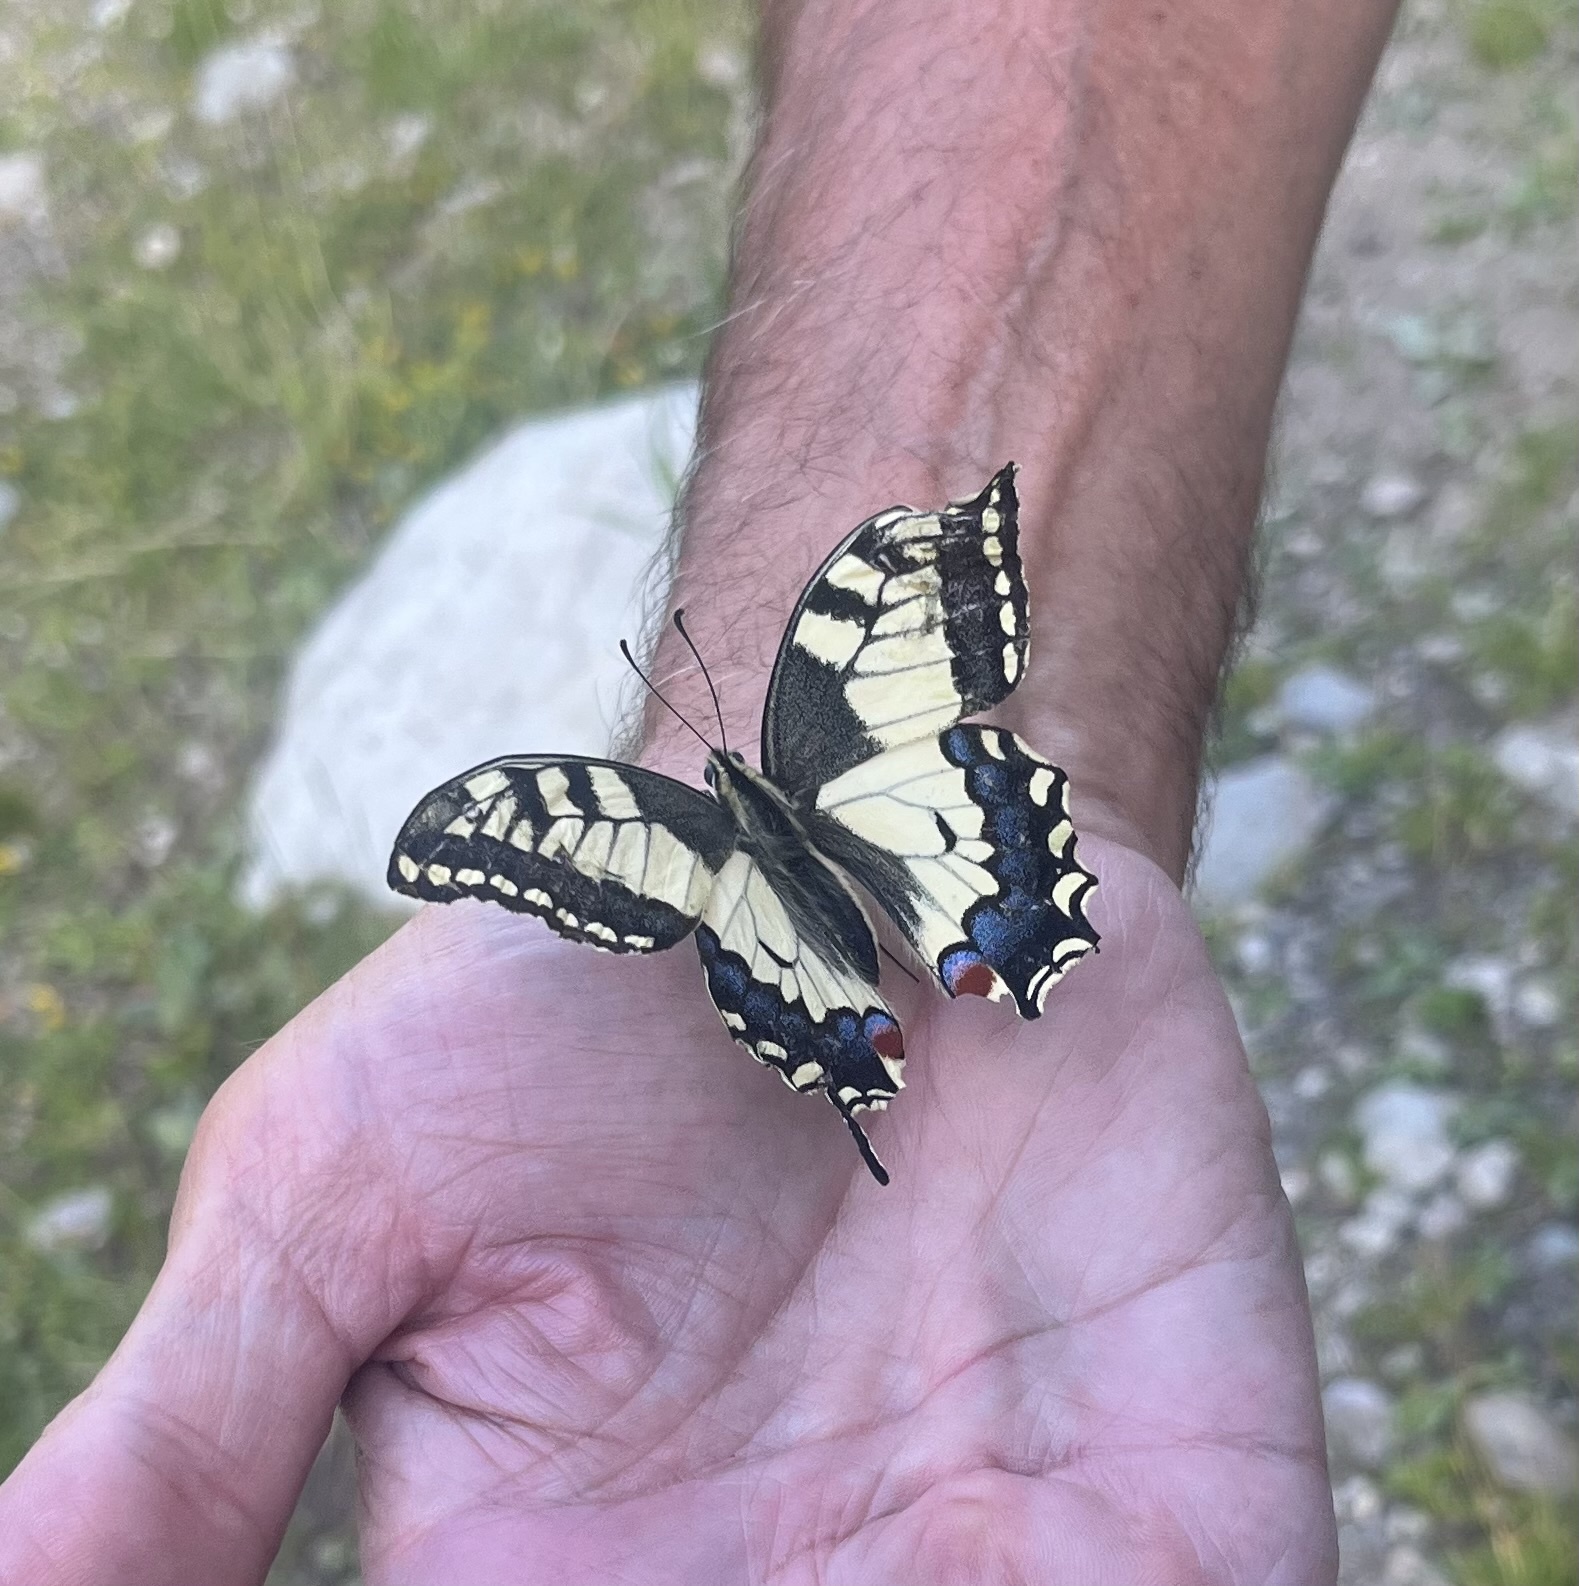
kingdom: Animalia
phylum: Arthropoda
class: Insecta
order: Lepidoptera
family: Papilionidae
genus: Papilio
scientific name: Papilio machaon
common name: Swallowtail
